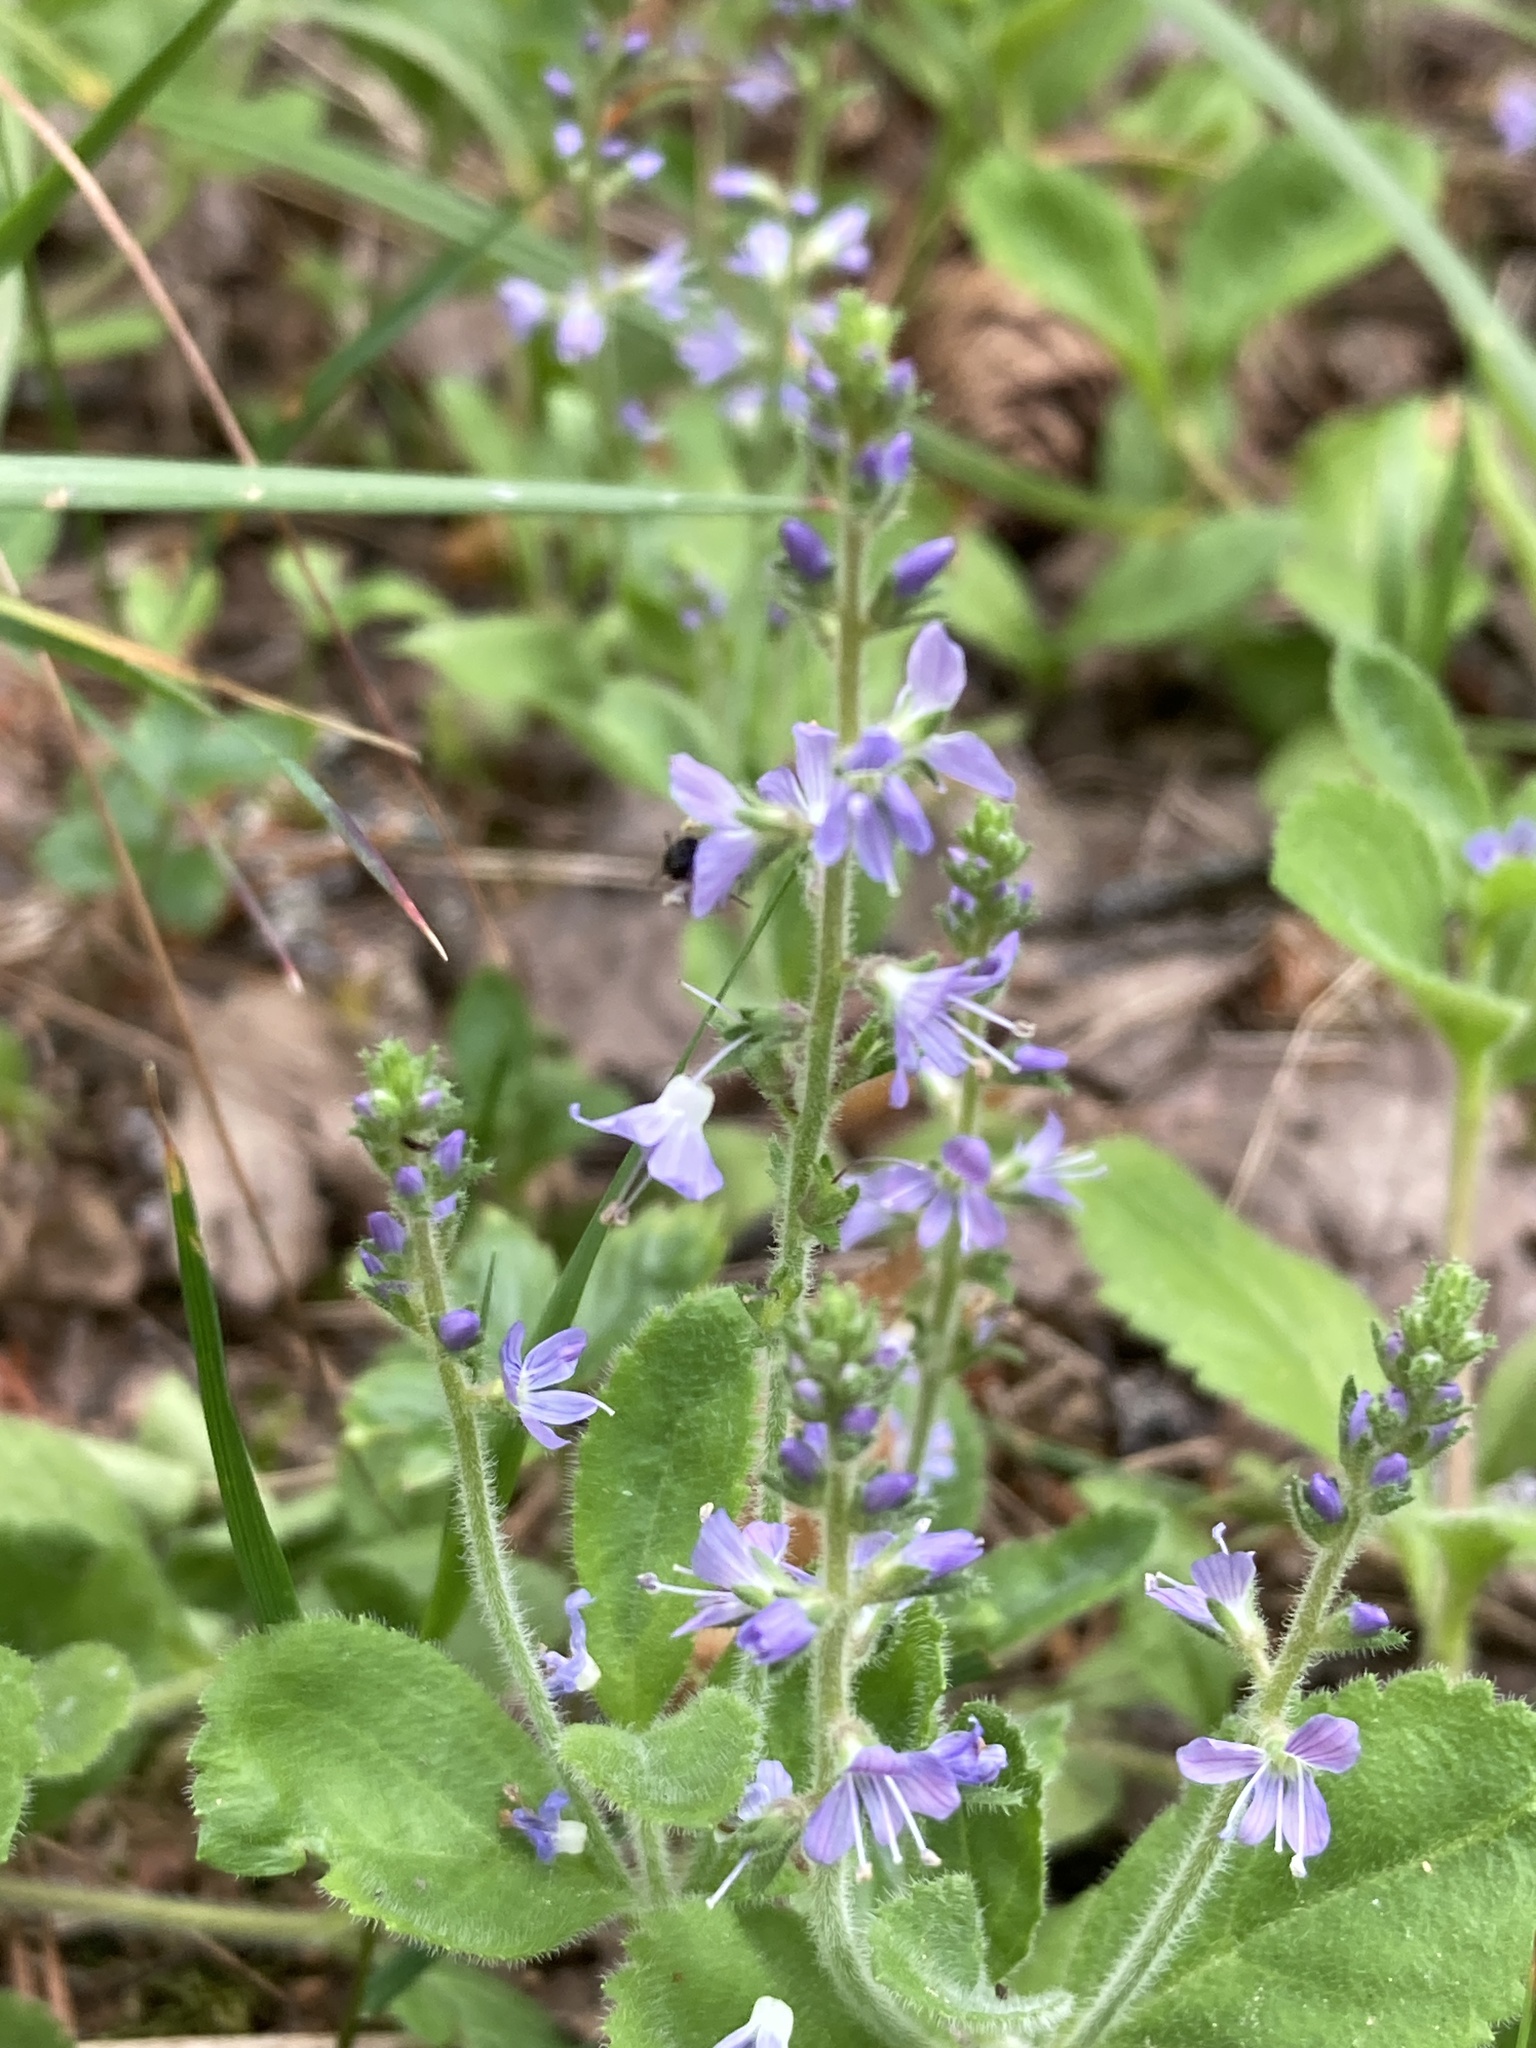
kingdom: Plantae
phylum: Tracheophyta
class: Magnoliopsida
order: Lamiales
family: Plantaginaceae
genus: Veronica
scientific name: Veronica officinalis
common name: Common speedwell
